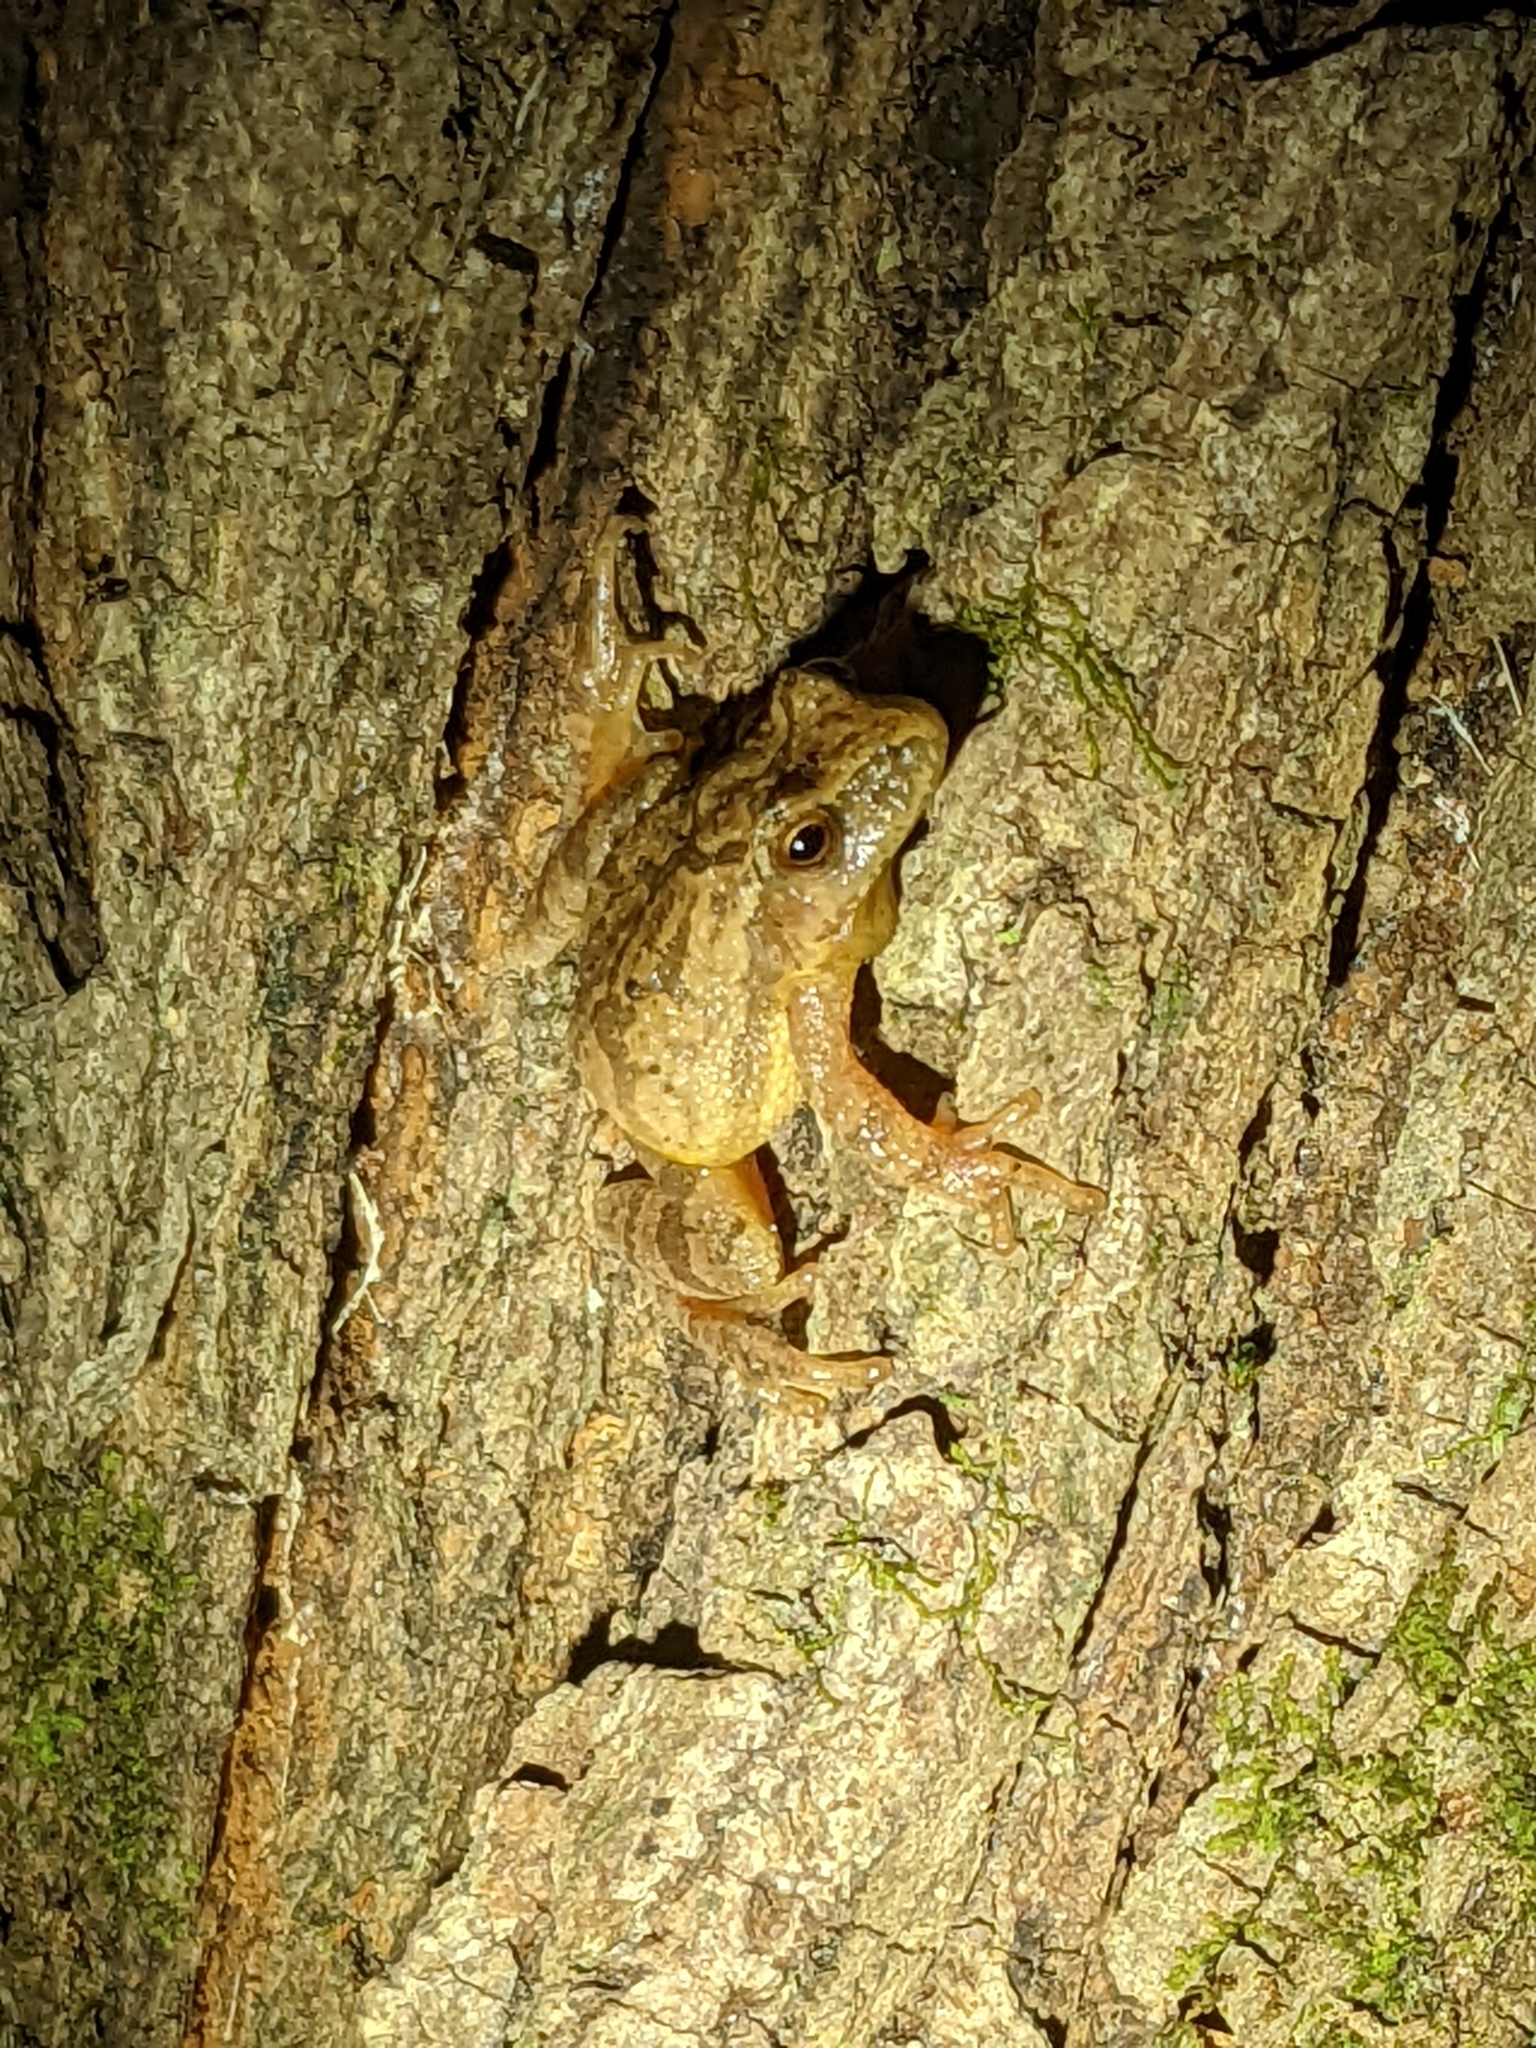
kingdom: Animalia
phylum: Chordata
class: Amphibia
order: Anura
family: Hylidae
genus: Pseudacris
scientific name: Pseudacris crucifer
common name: Spring peeper
